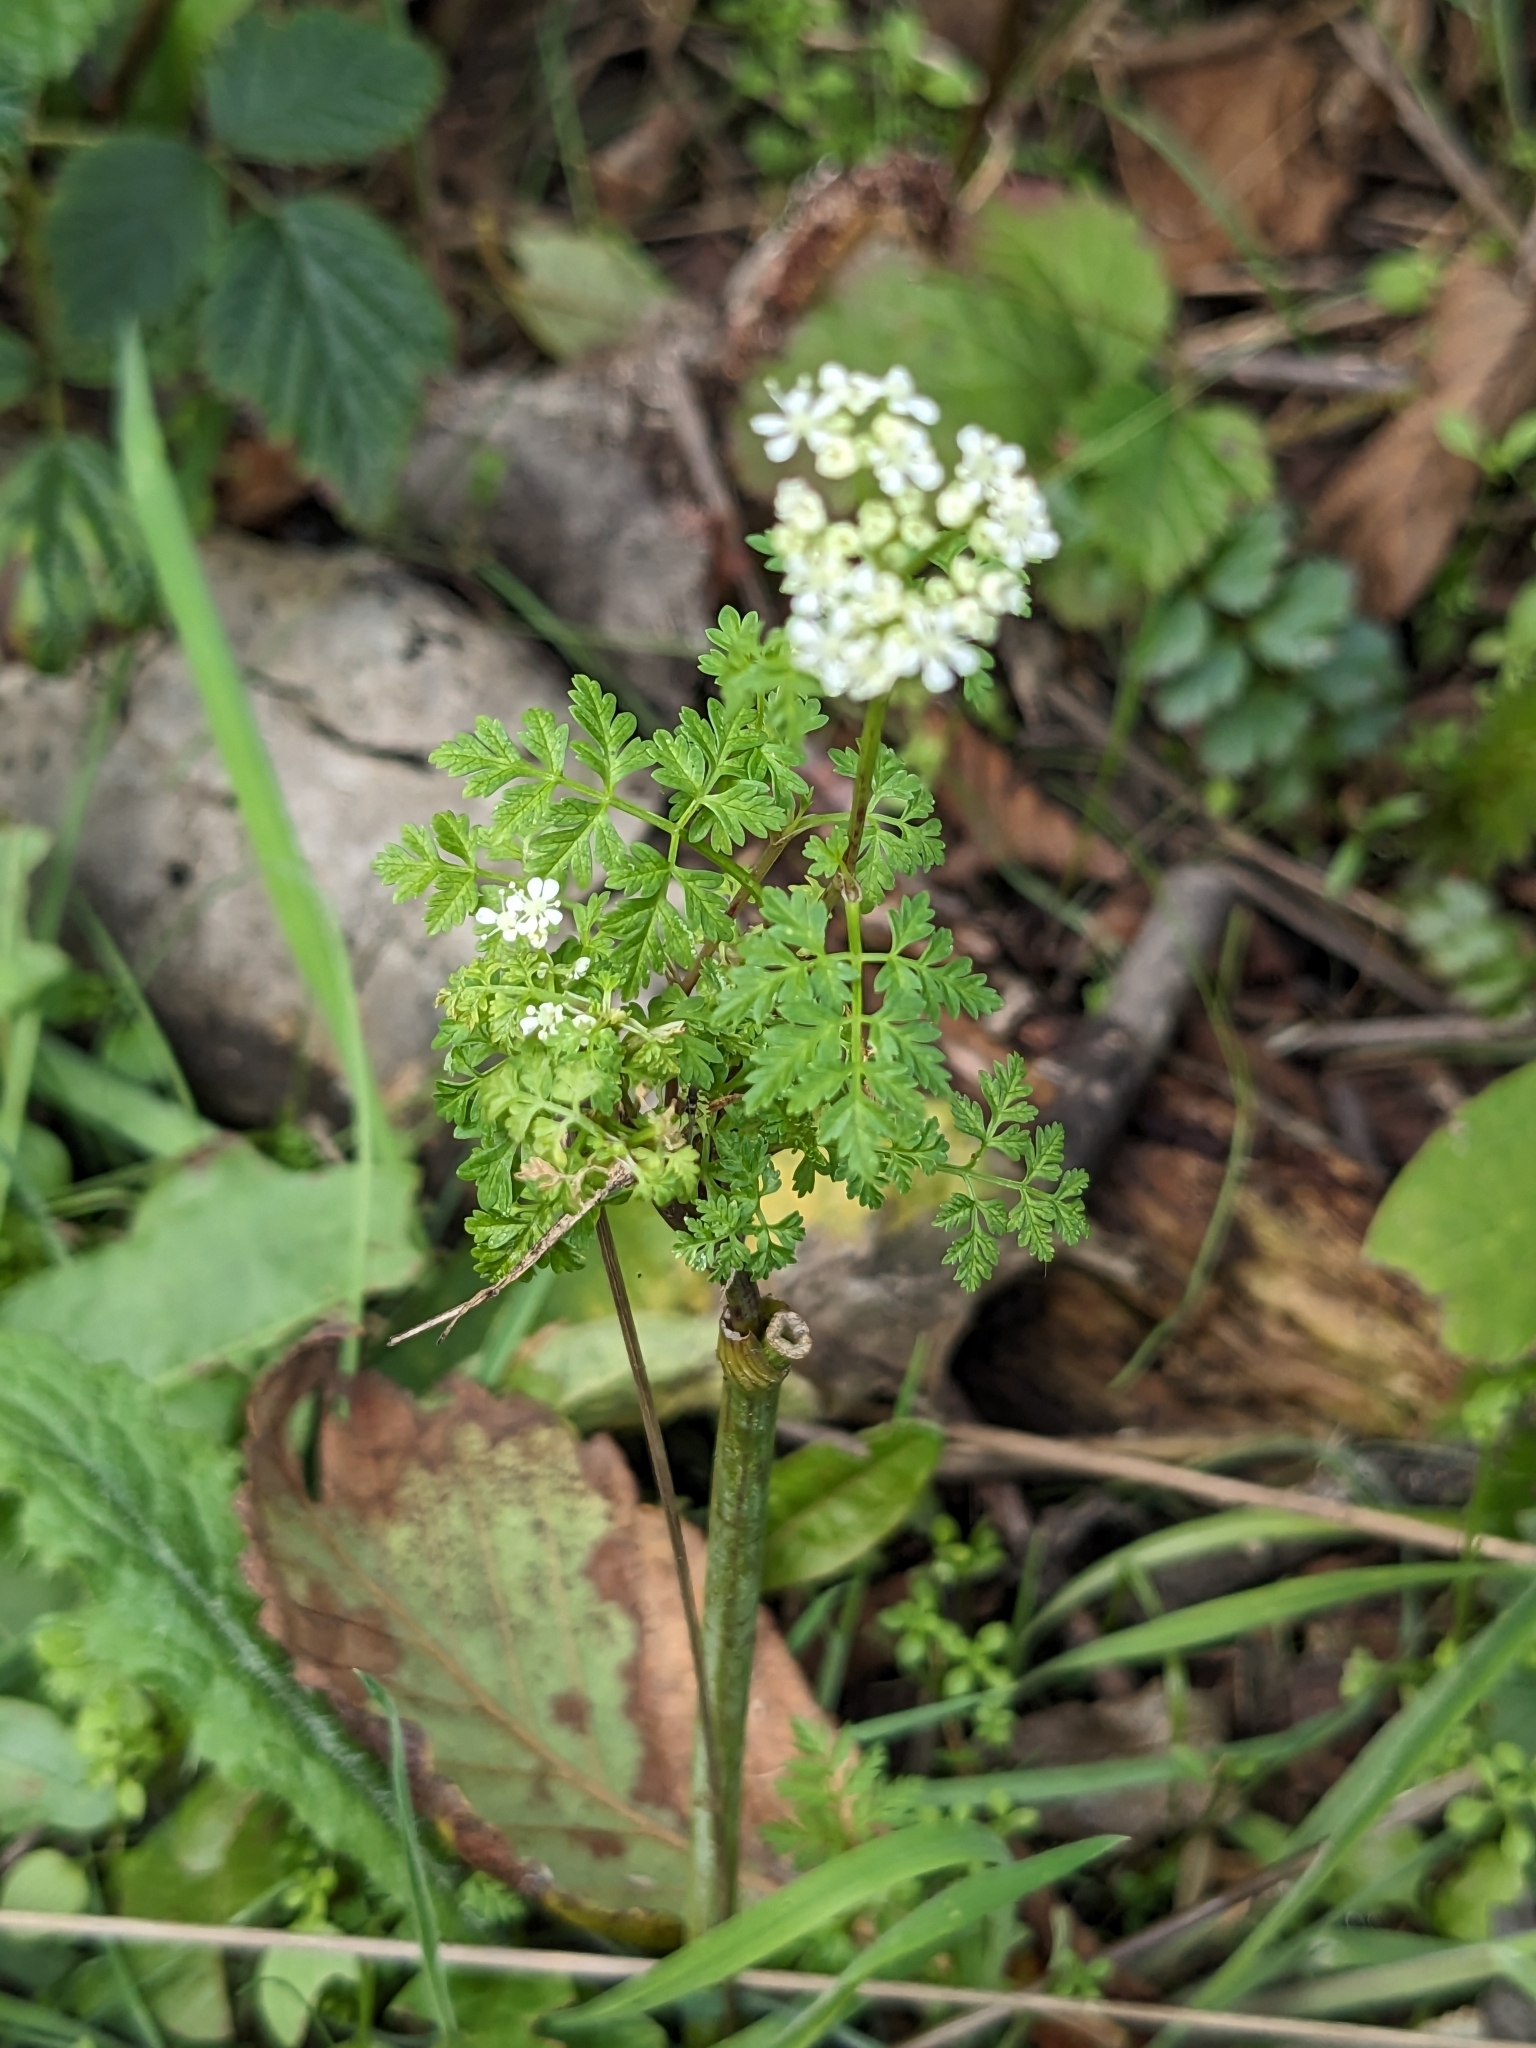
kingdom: Plantae
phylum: Tracheophyta
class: Magnoliopsida
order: Apiales
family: Apiaceae
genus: Conium
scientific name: Conium maculatum
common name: Hemlock
